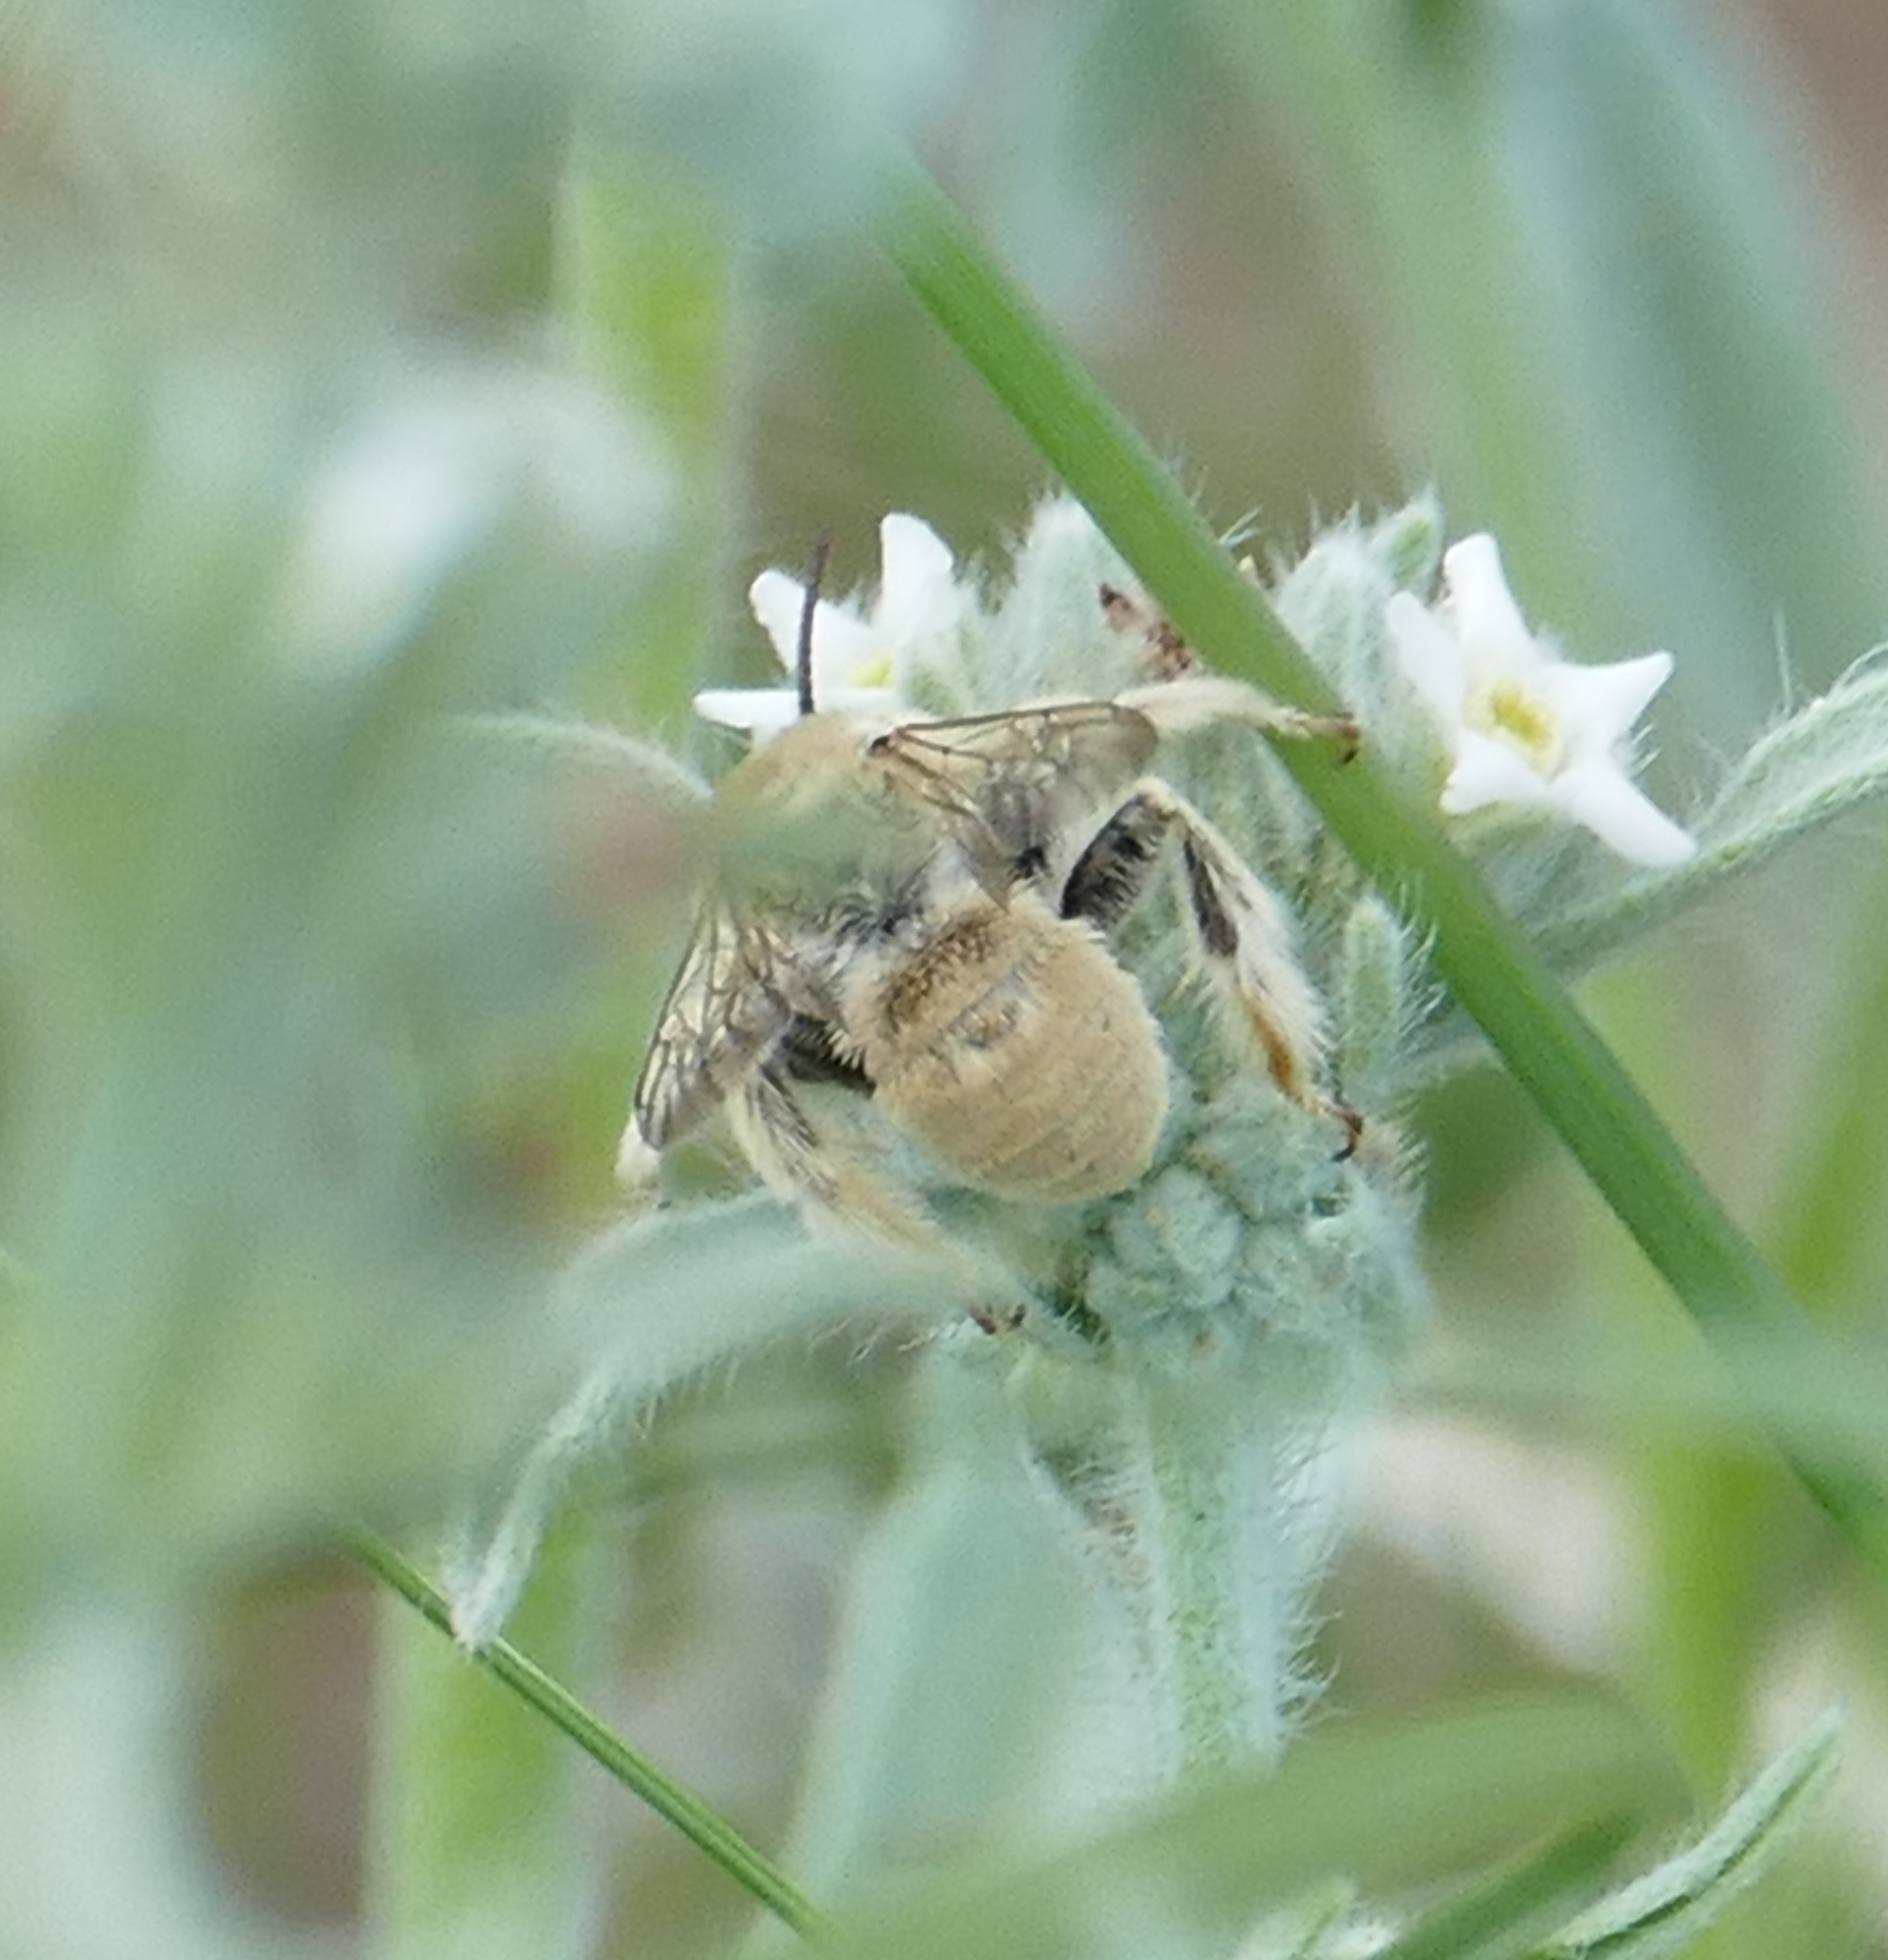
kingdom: Animalia
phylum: Arthropoda
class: Insecta
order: Hymenoptera
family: Apidae
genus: Diadasia
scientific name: Diadasia ochracea
